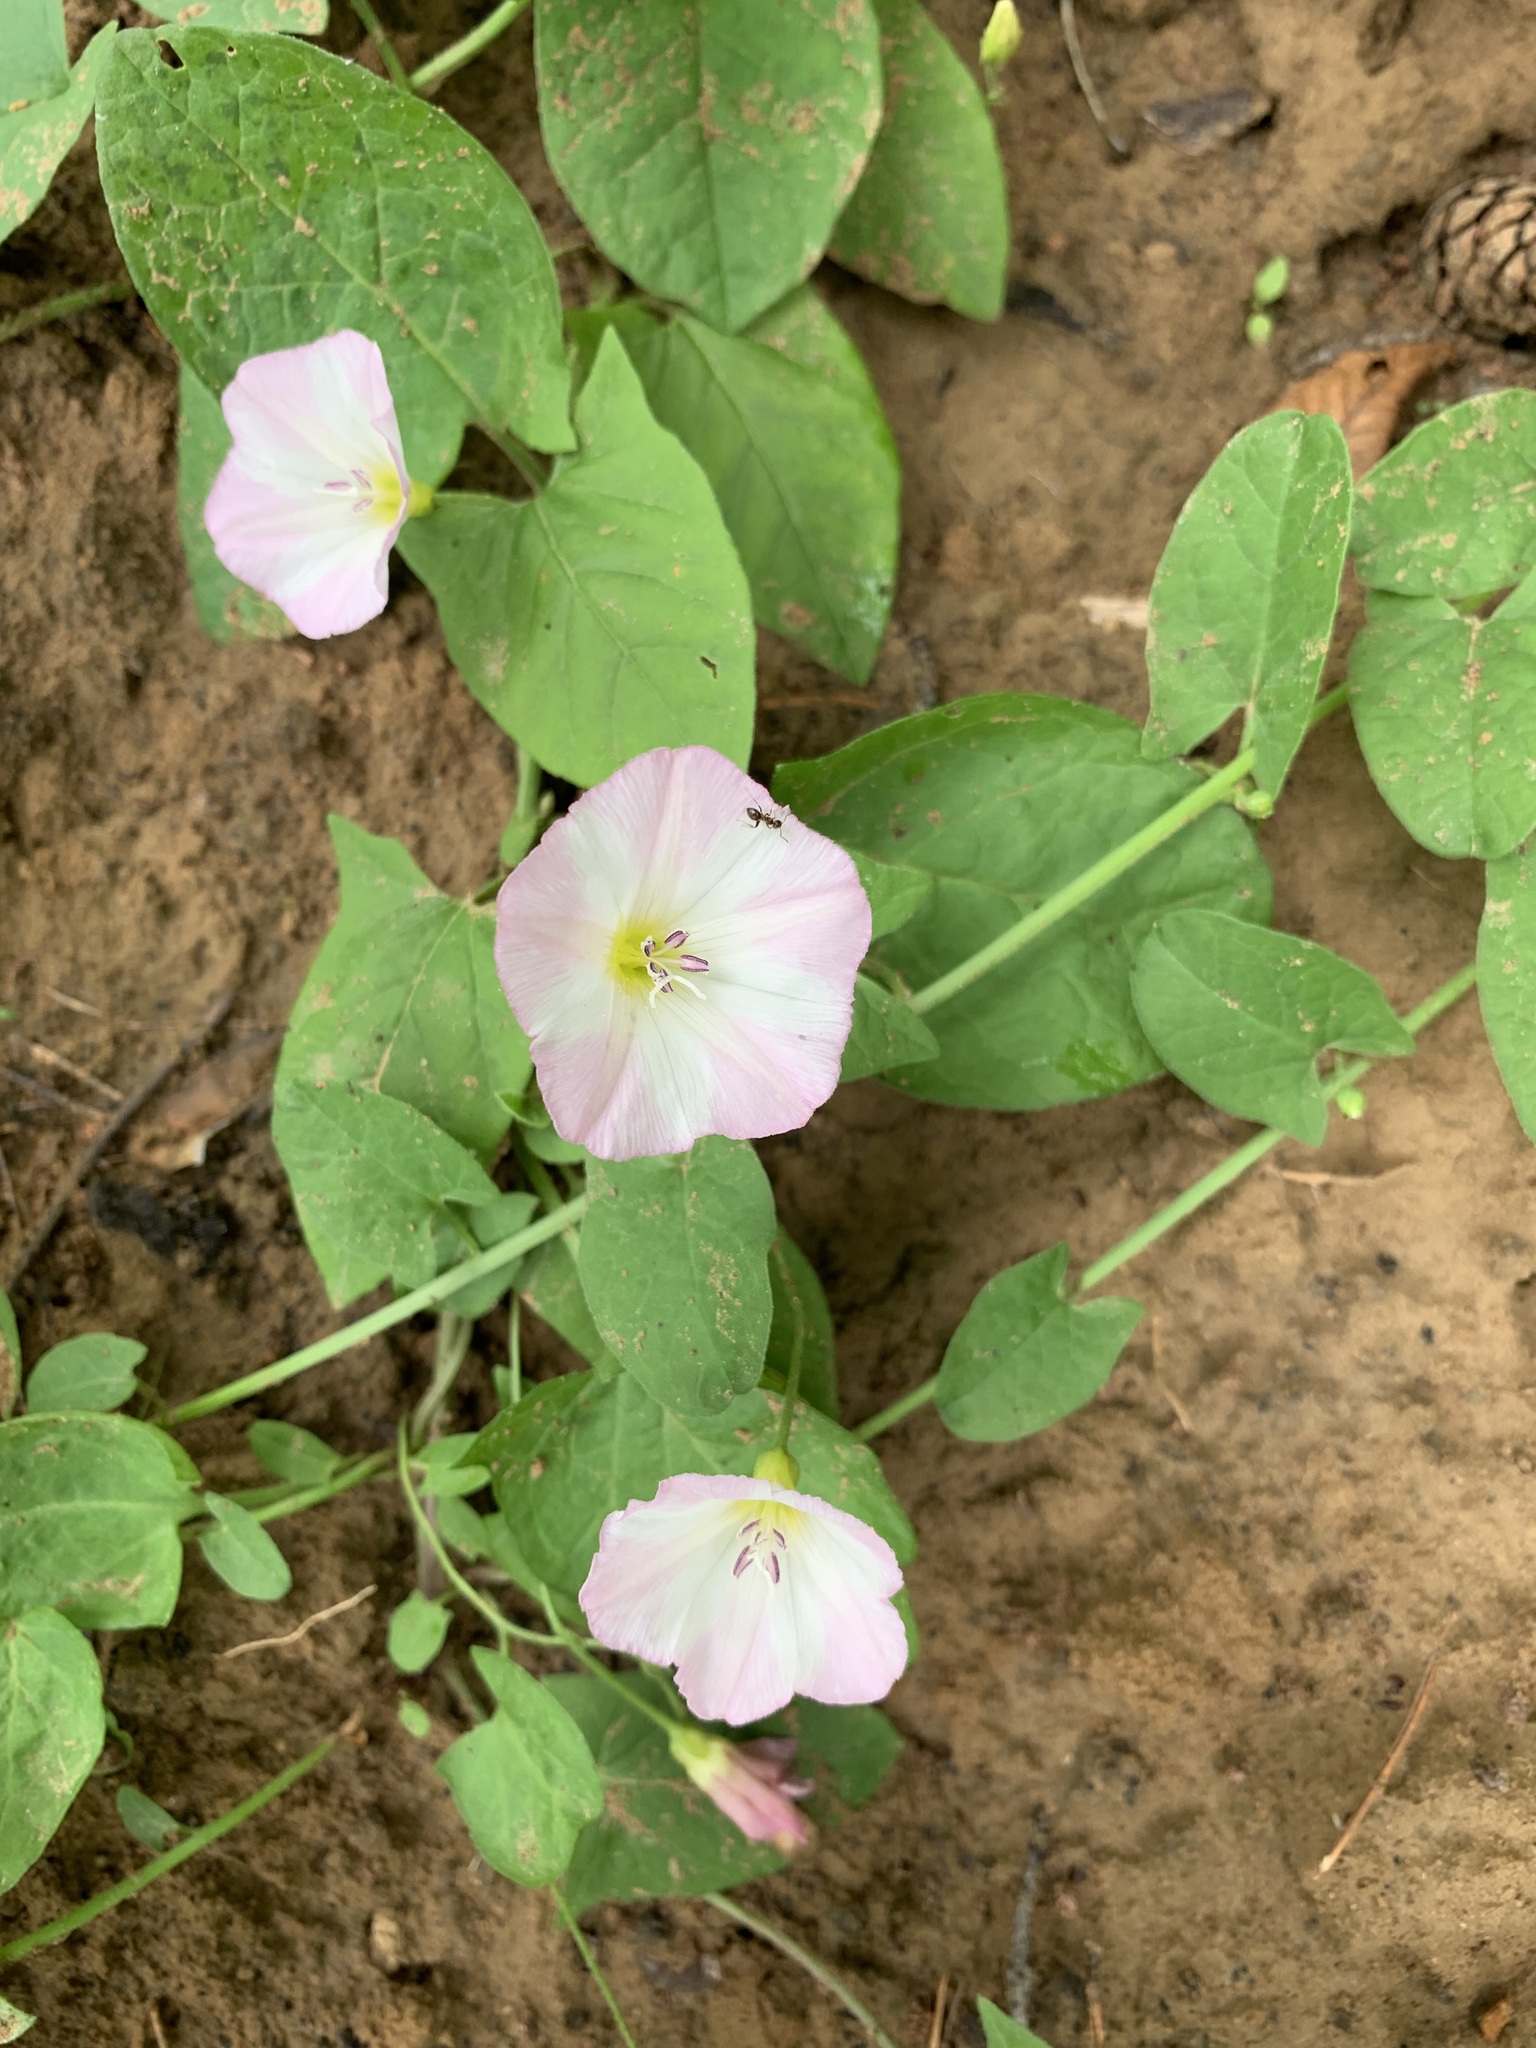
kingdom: Plantae
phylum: Tracheophyta
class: Magnoliopsida
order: Solanales
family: Convolvulaceae
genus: Convolvulus
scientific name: Convolvulus arvensis
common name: Field bindweed
